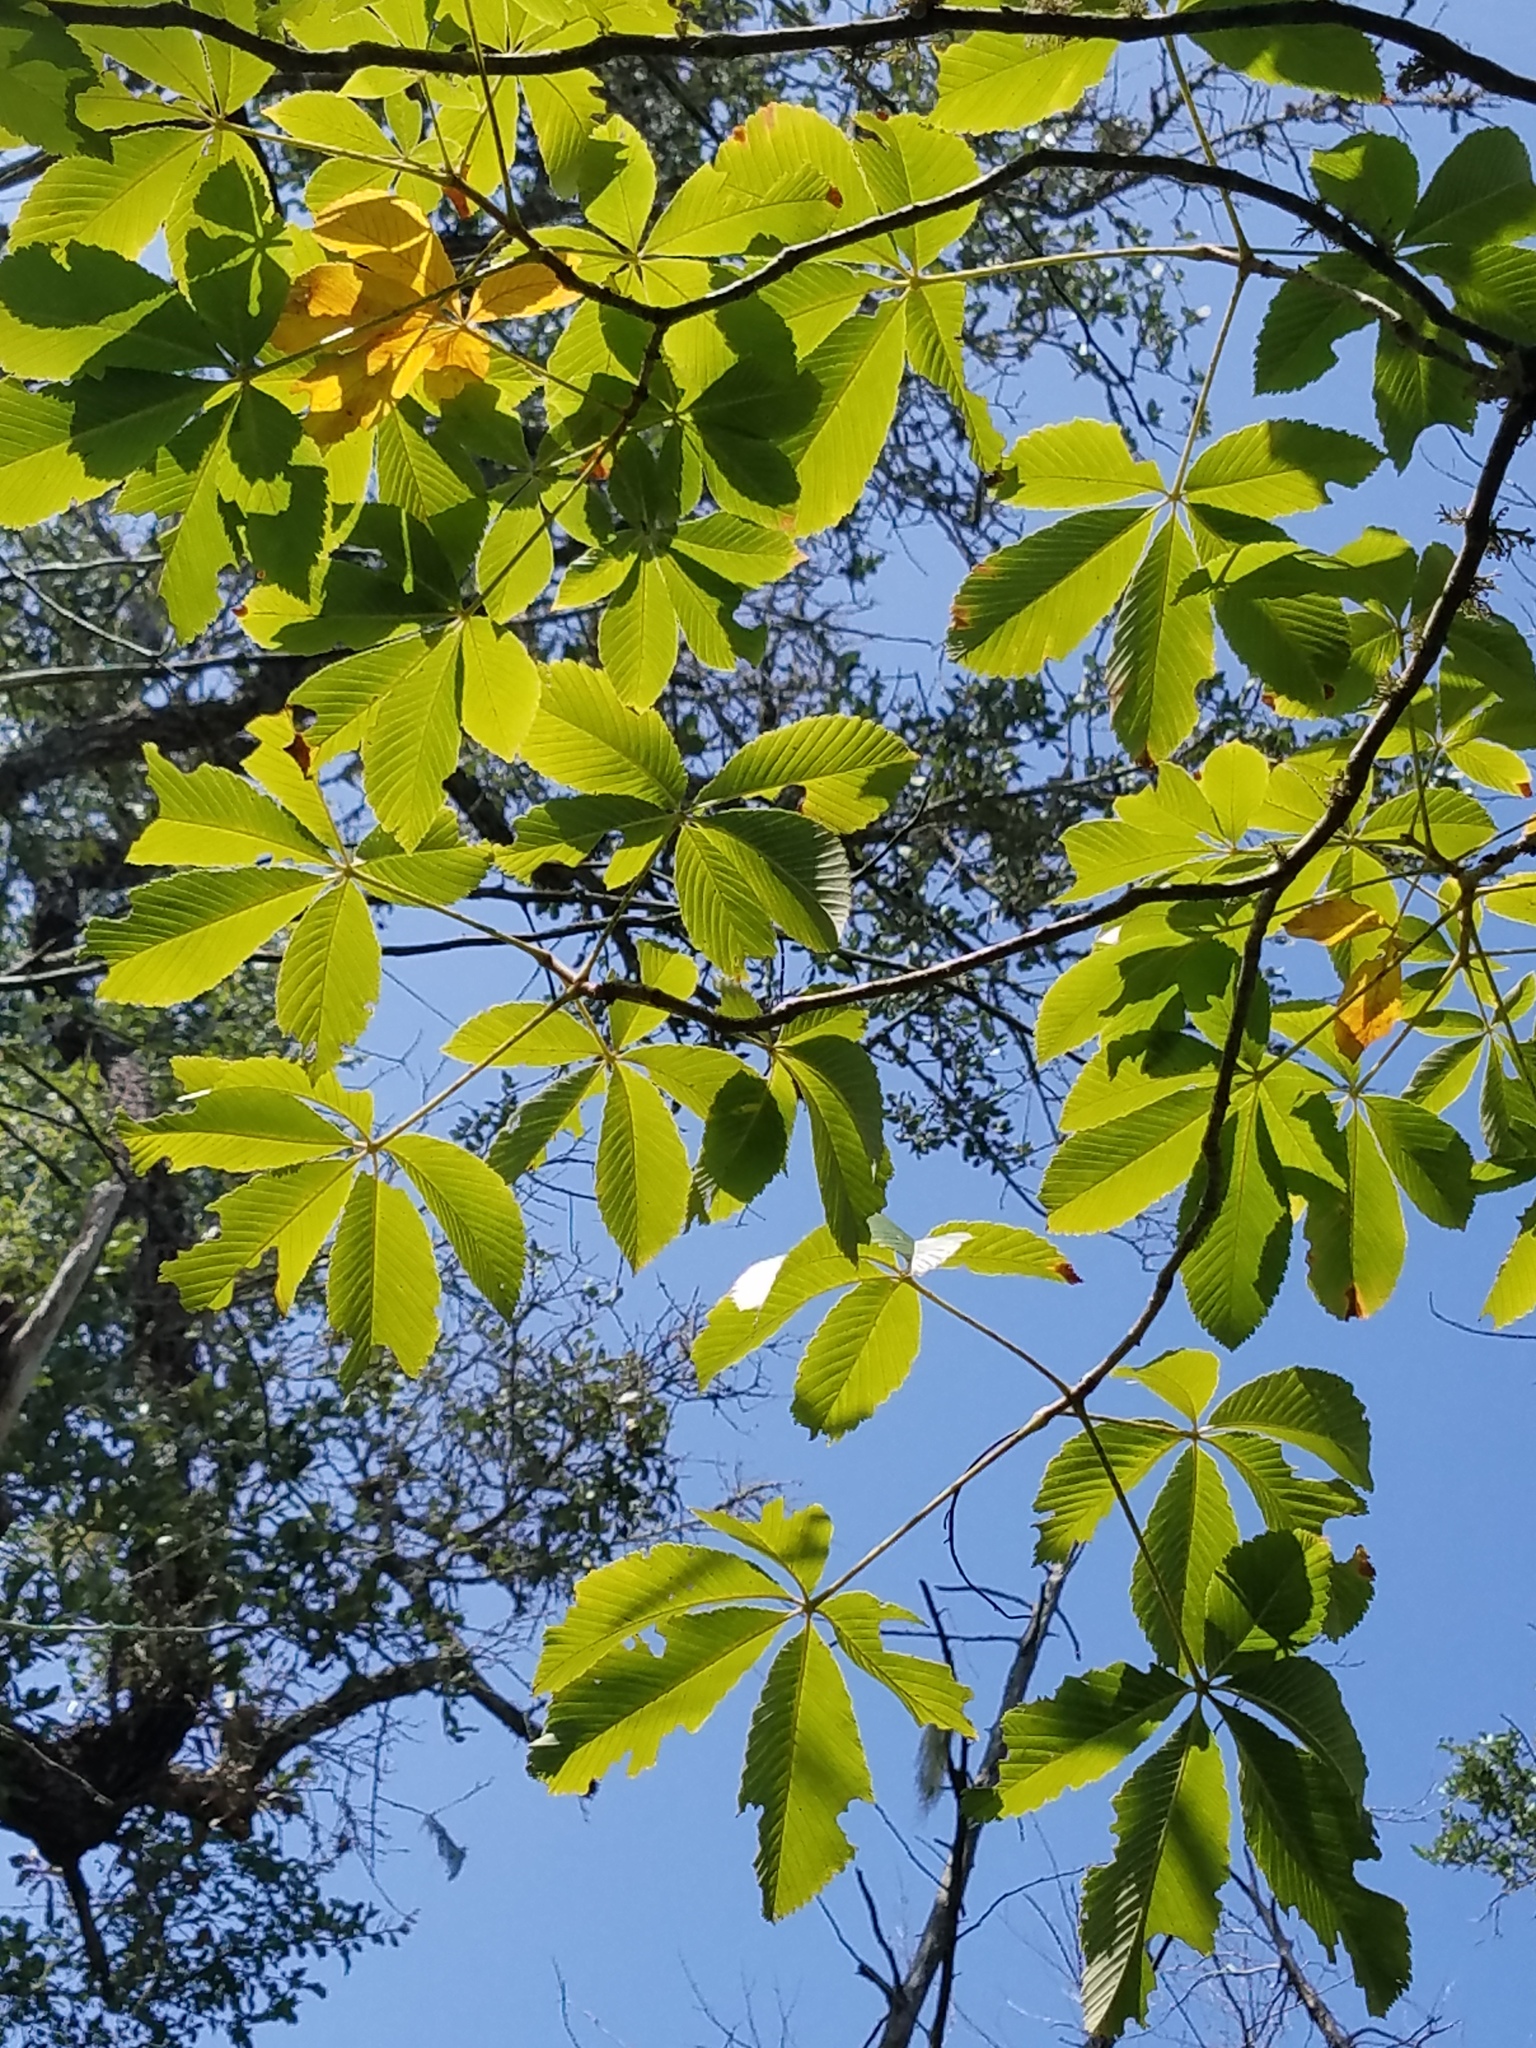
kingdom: Plantae
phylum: Tracheophyta
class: Magnoliopsida
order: Sapindales
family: Sapindaceae
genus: Aesculus
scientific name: Aesculus pavia
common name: Red buckeye
